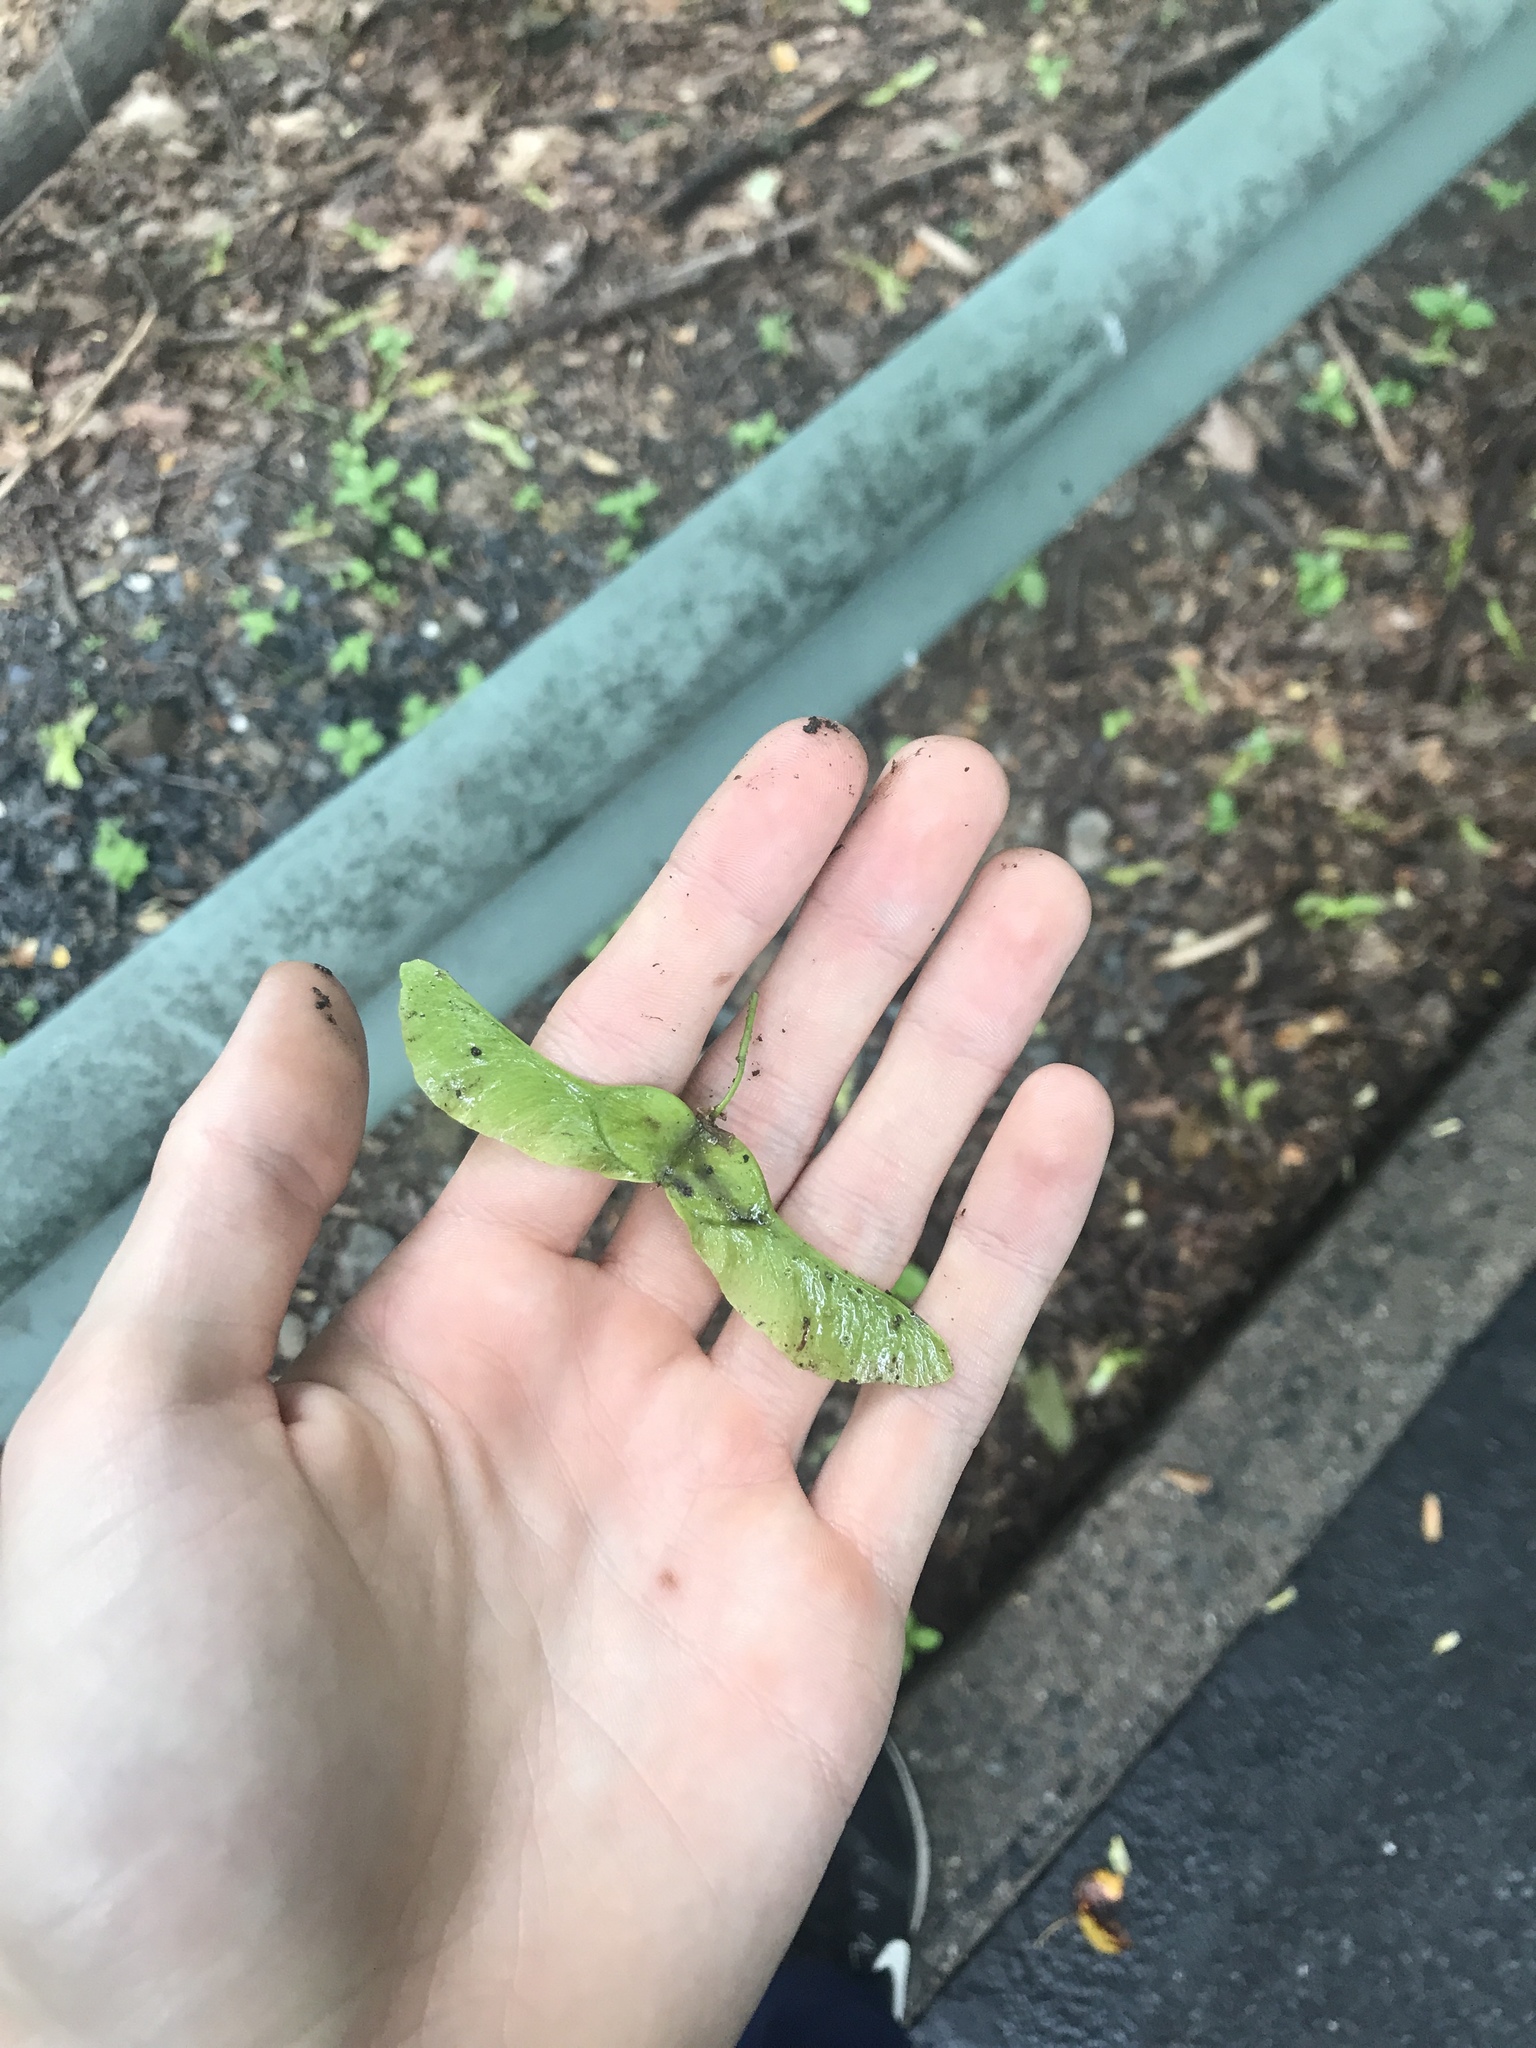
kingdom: Plantae
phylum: Tracheophyta
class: Magnoliopsida
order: Sapindales
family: Sapindaceae
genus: Acer
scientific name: Acer platanoides
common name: Norway maple
